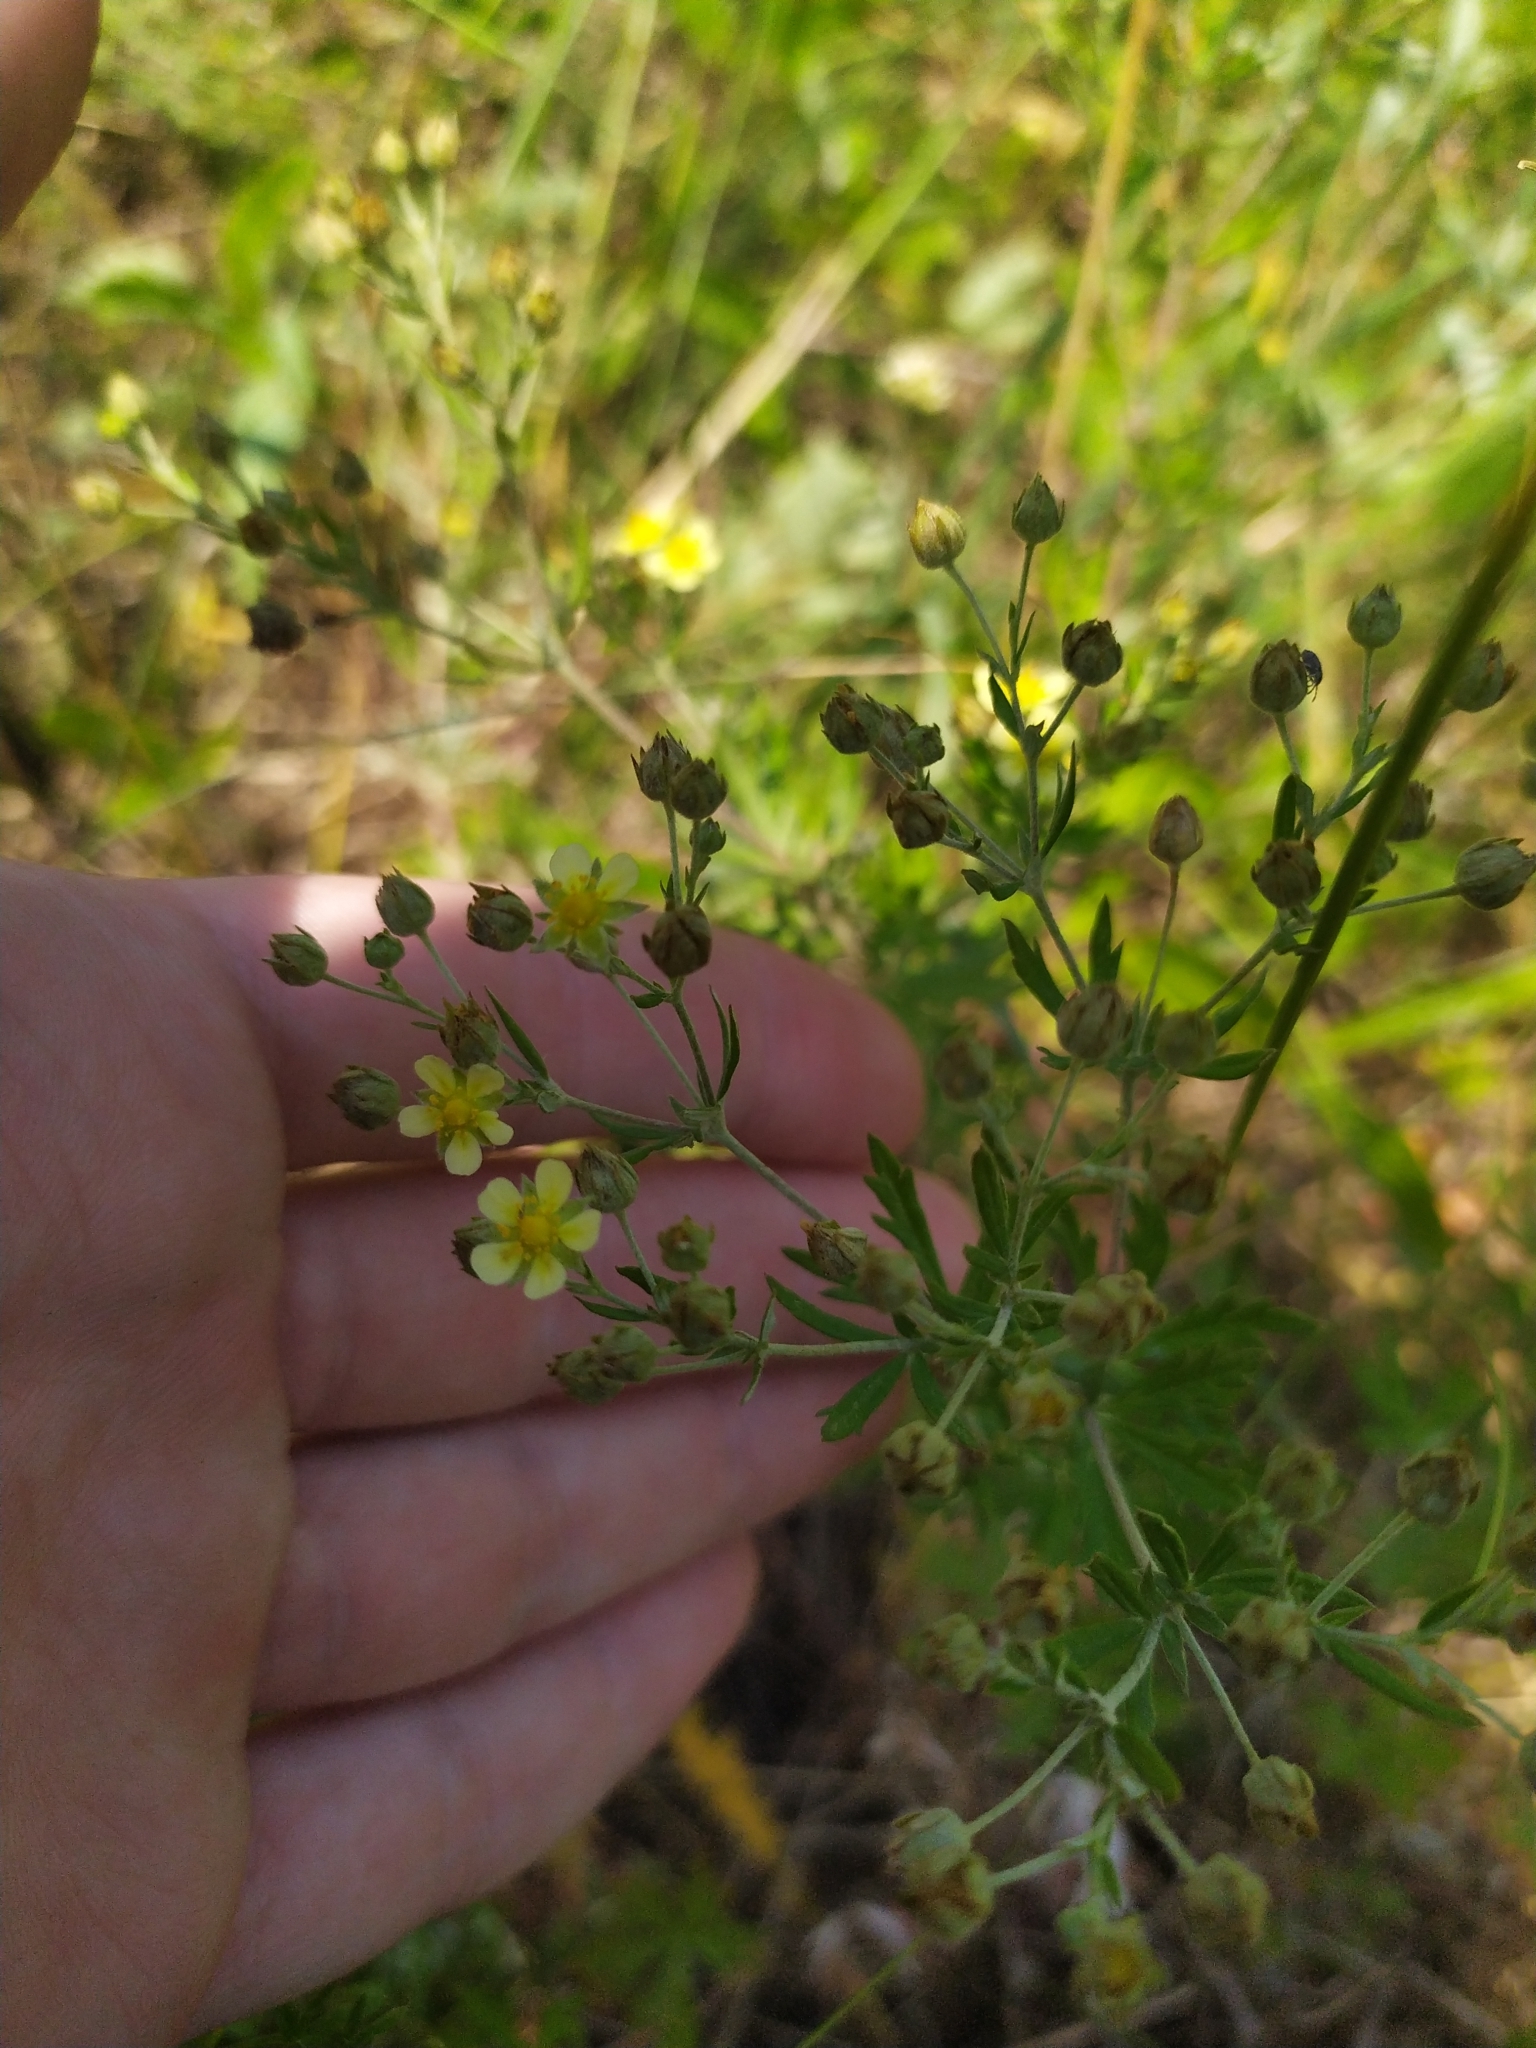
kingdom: Plantae
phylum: Tracheophyta
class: Magnoliopsida
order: Rosales
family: Rosaceae
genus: Potentilla
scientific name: Potentilla argentea
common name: Hoary cinquefoil
